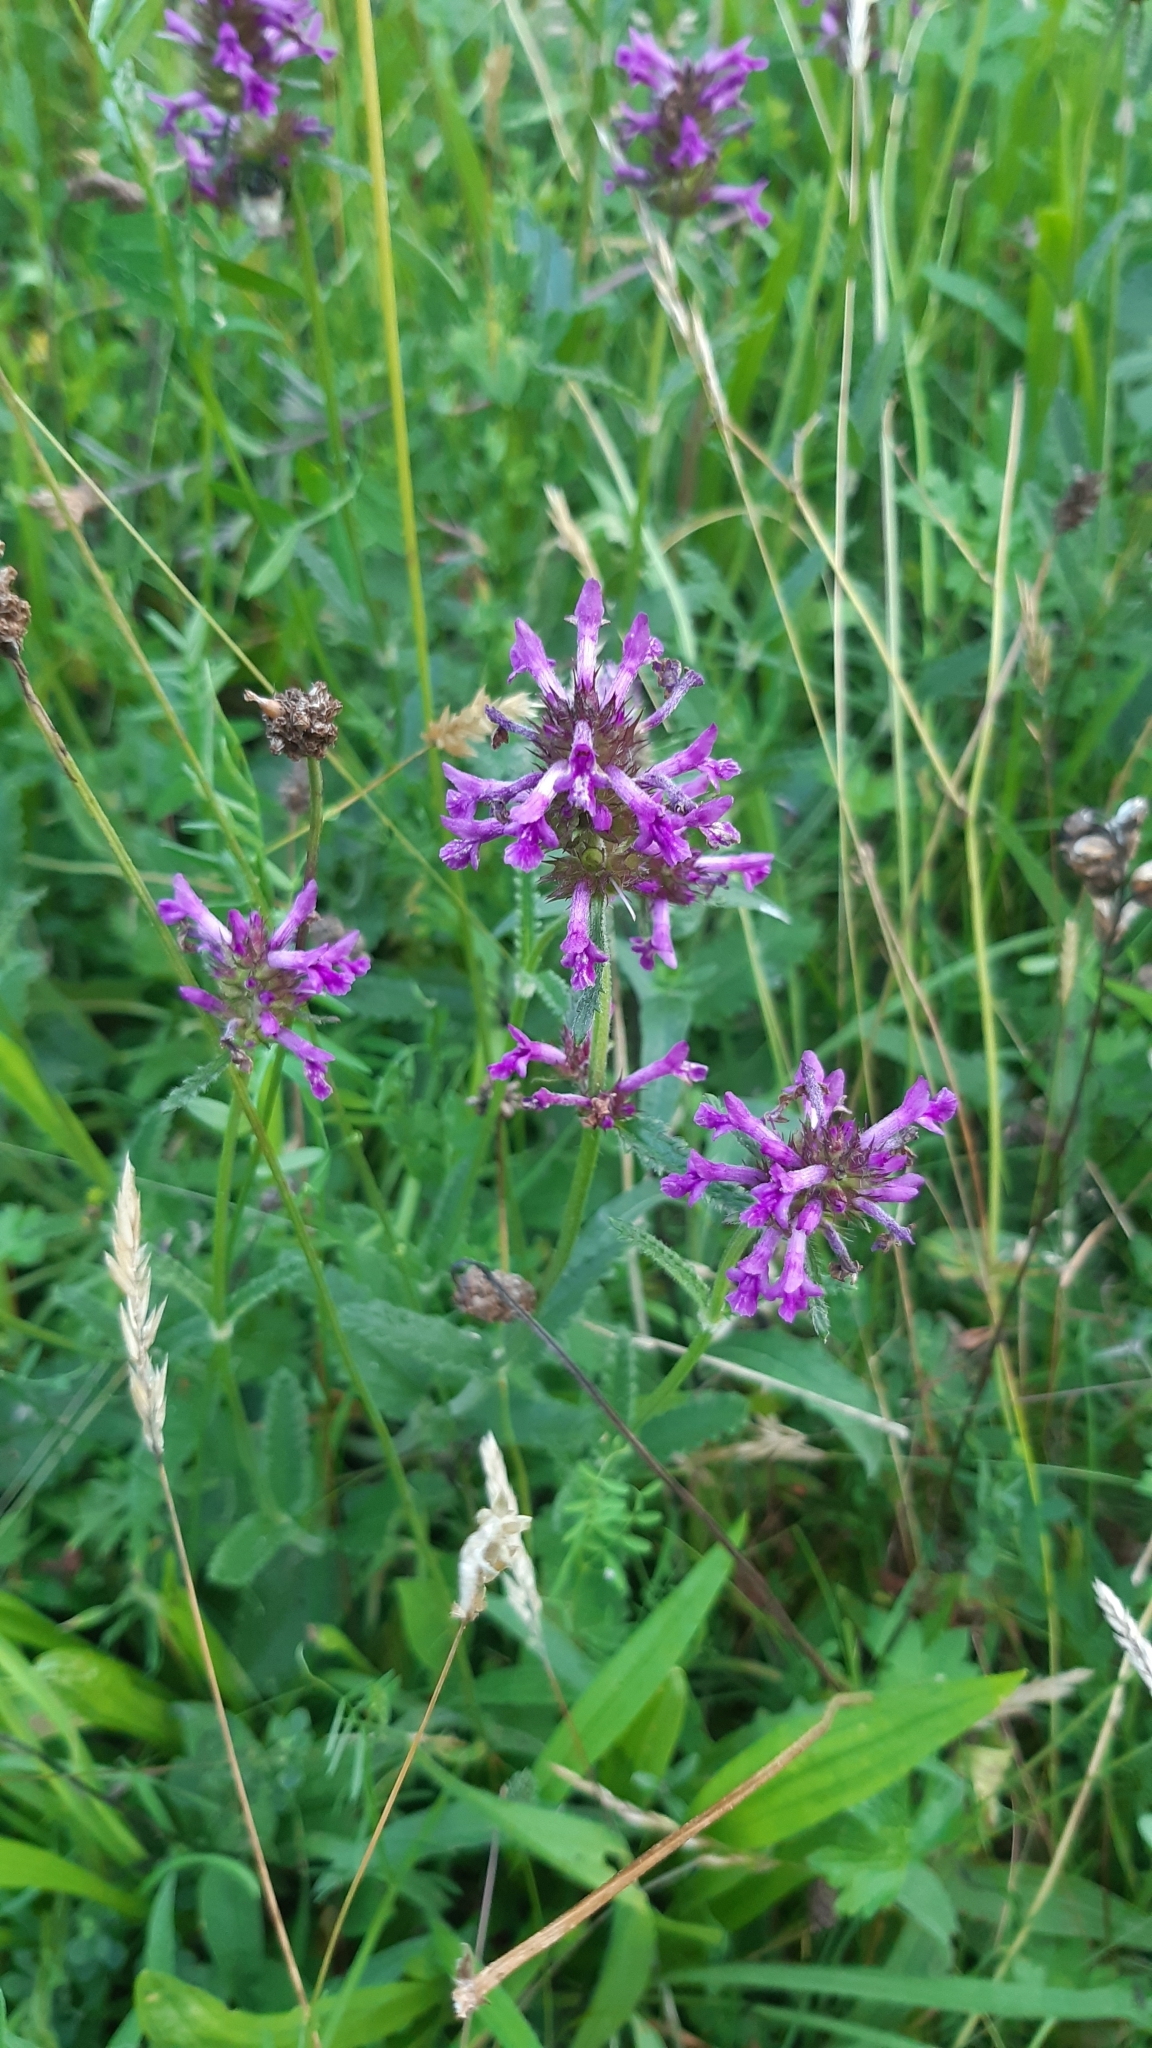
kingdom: Plantae
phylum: Tracheophyta
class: Magnoliopsida
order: Lamiales
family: Lamiaceae
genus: Betonica
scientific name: Betonica officinalis
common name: Bishop's-wort
